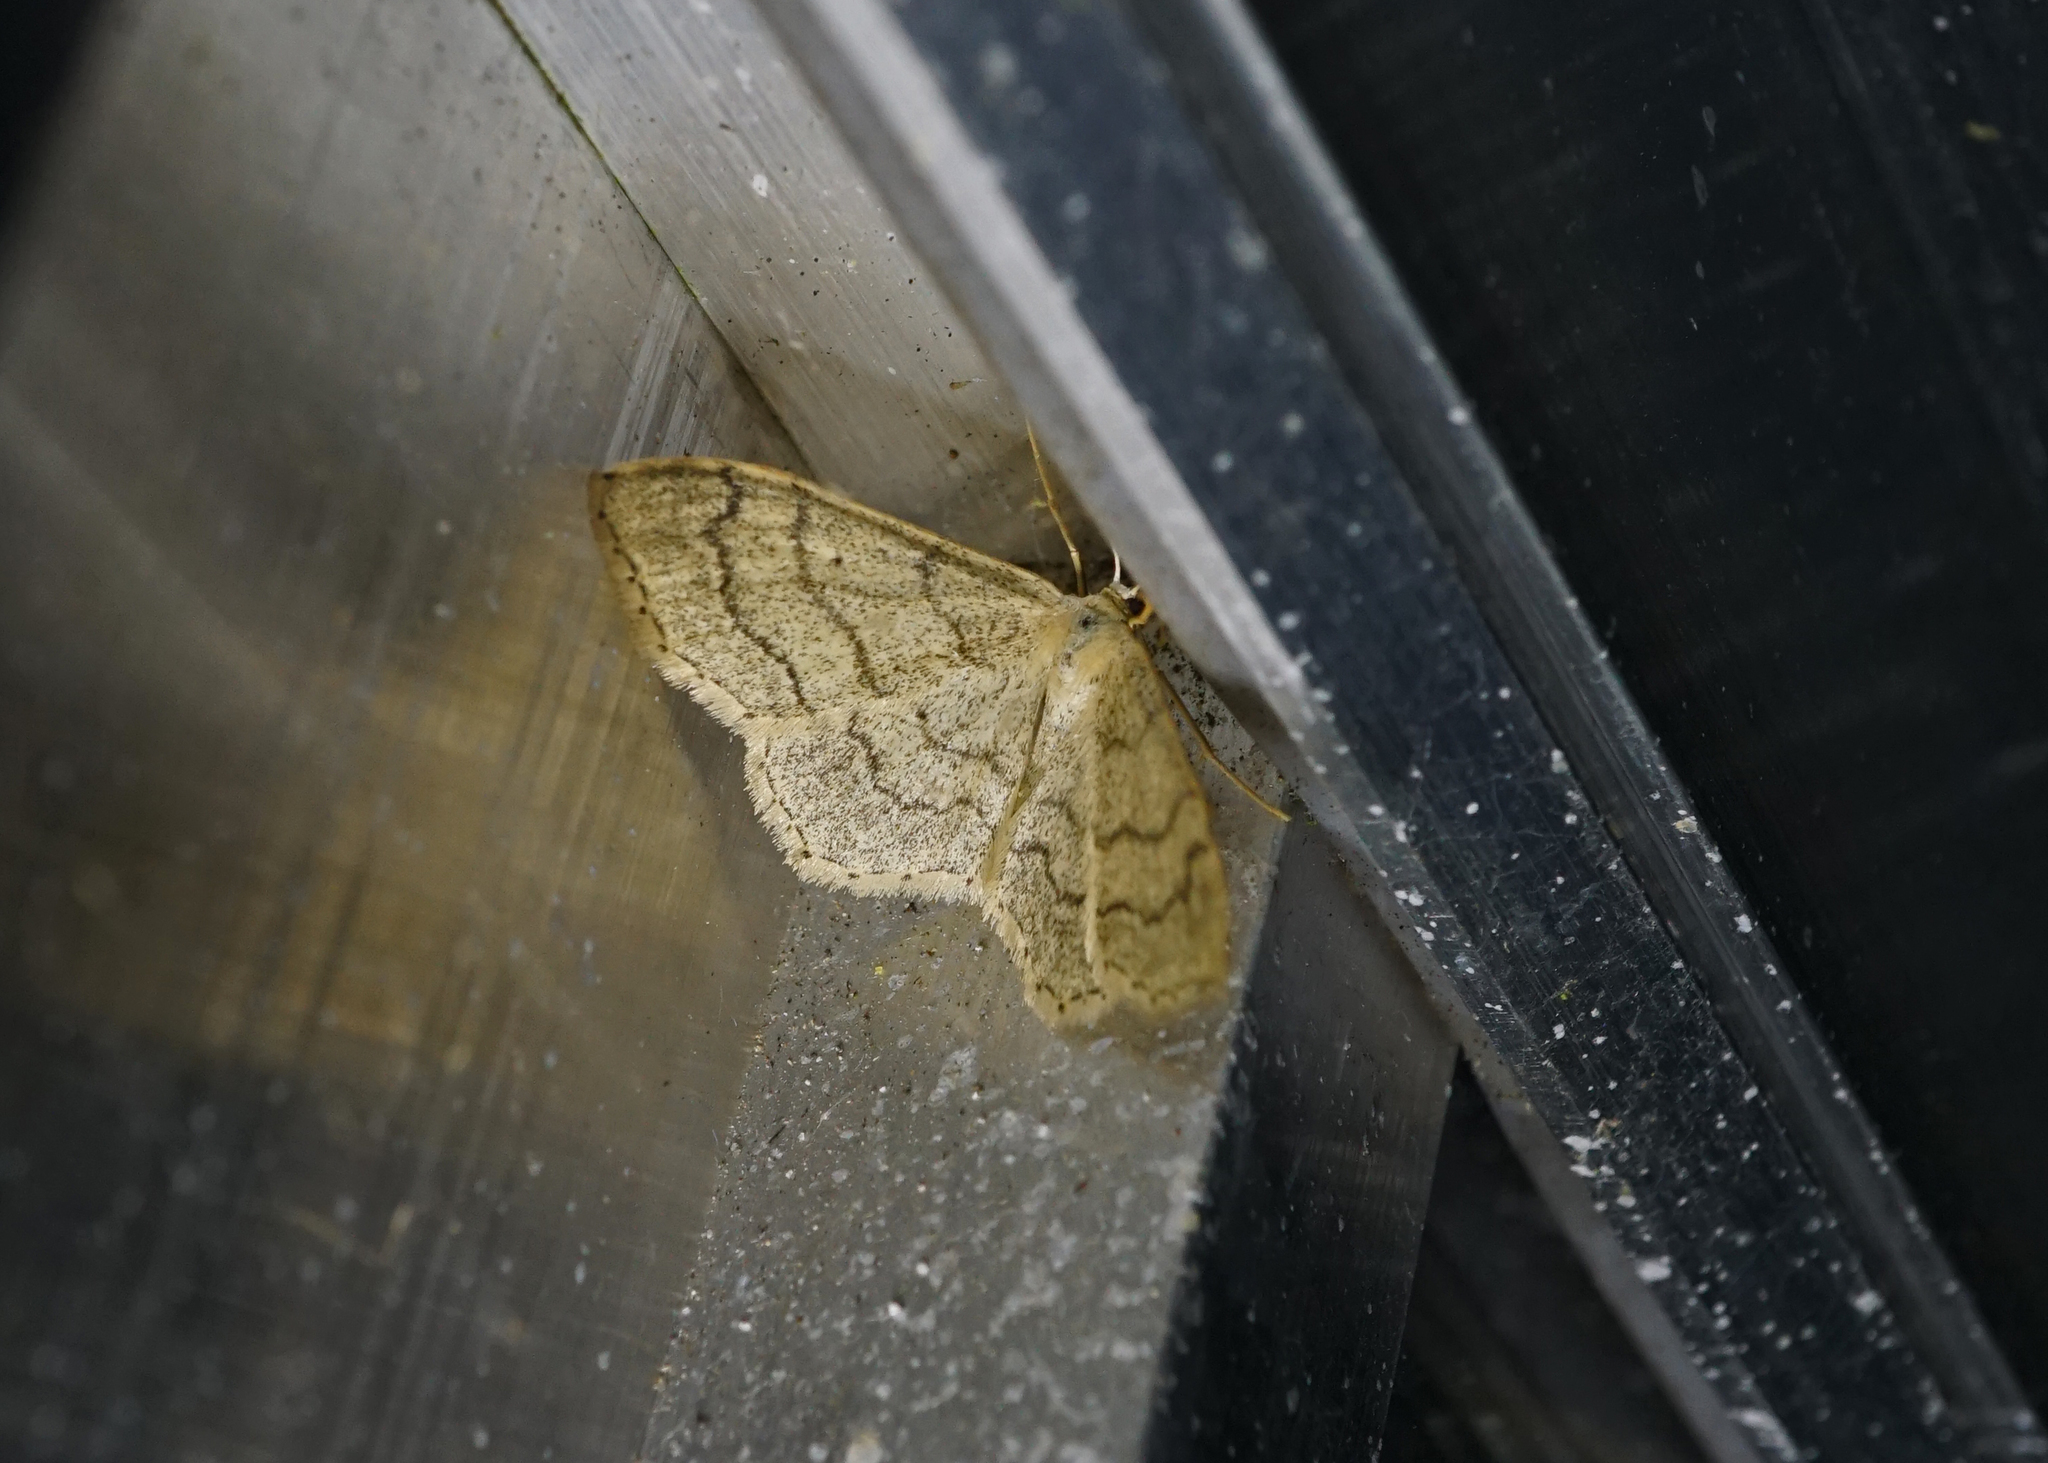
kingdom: Animalia
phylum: Arthropoda
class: Insecta
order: Lepidoptera
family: Geometridae
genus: Idaea
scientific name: Idaea aversata
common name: Riband wave
